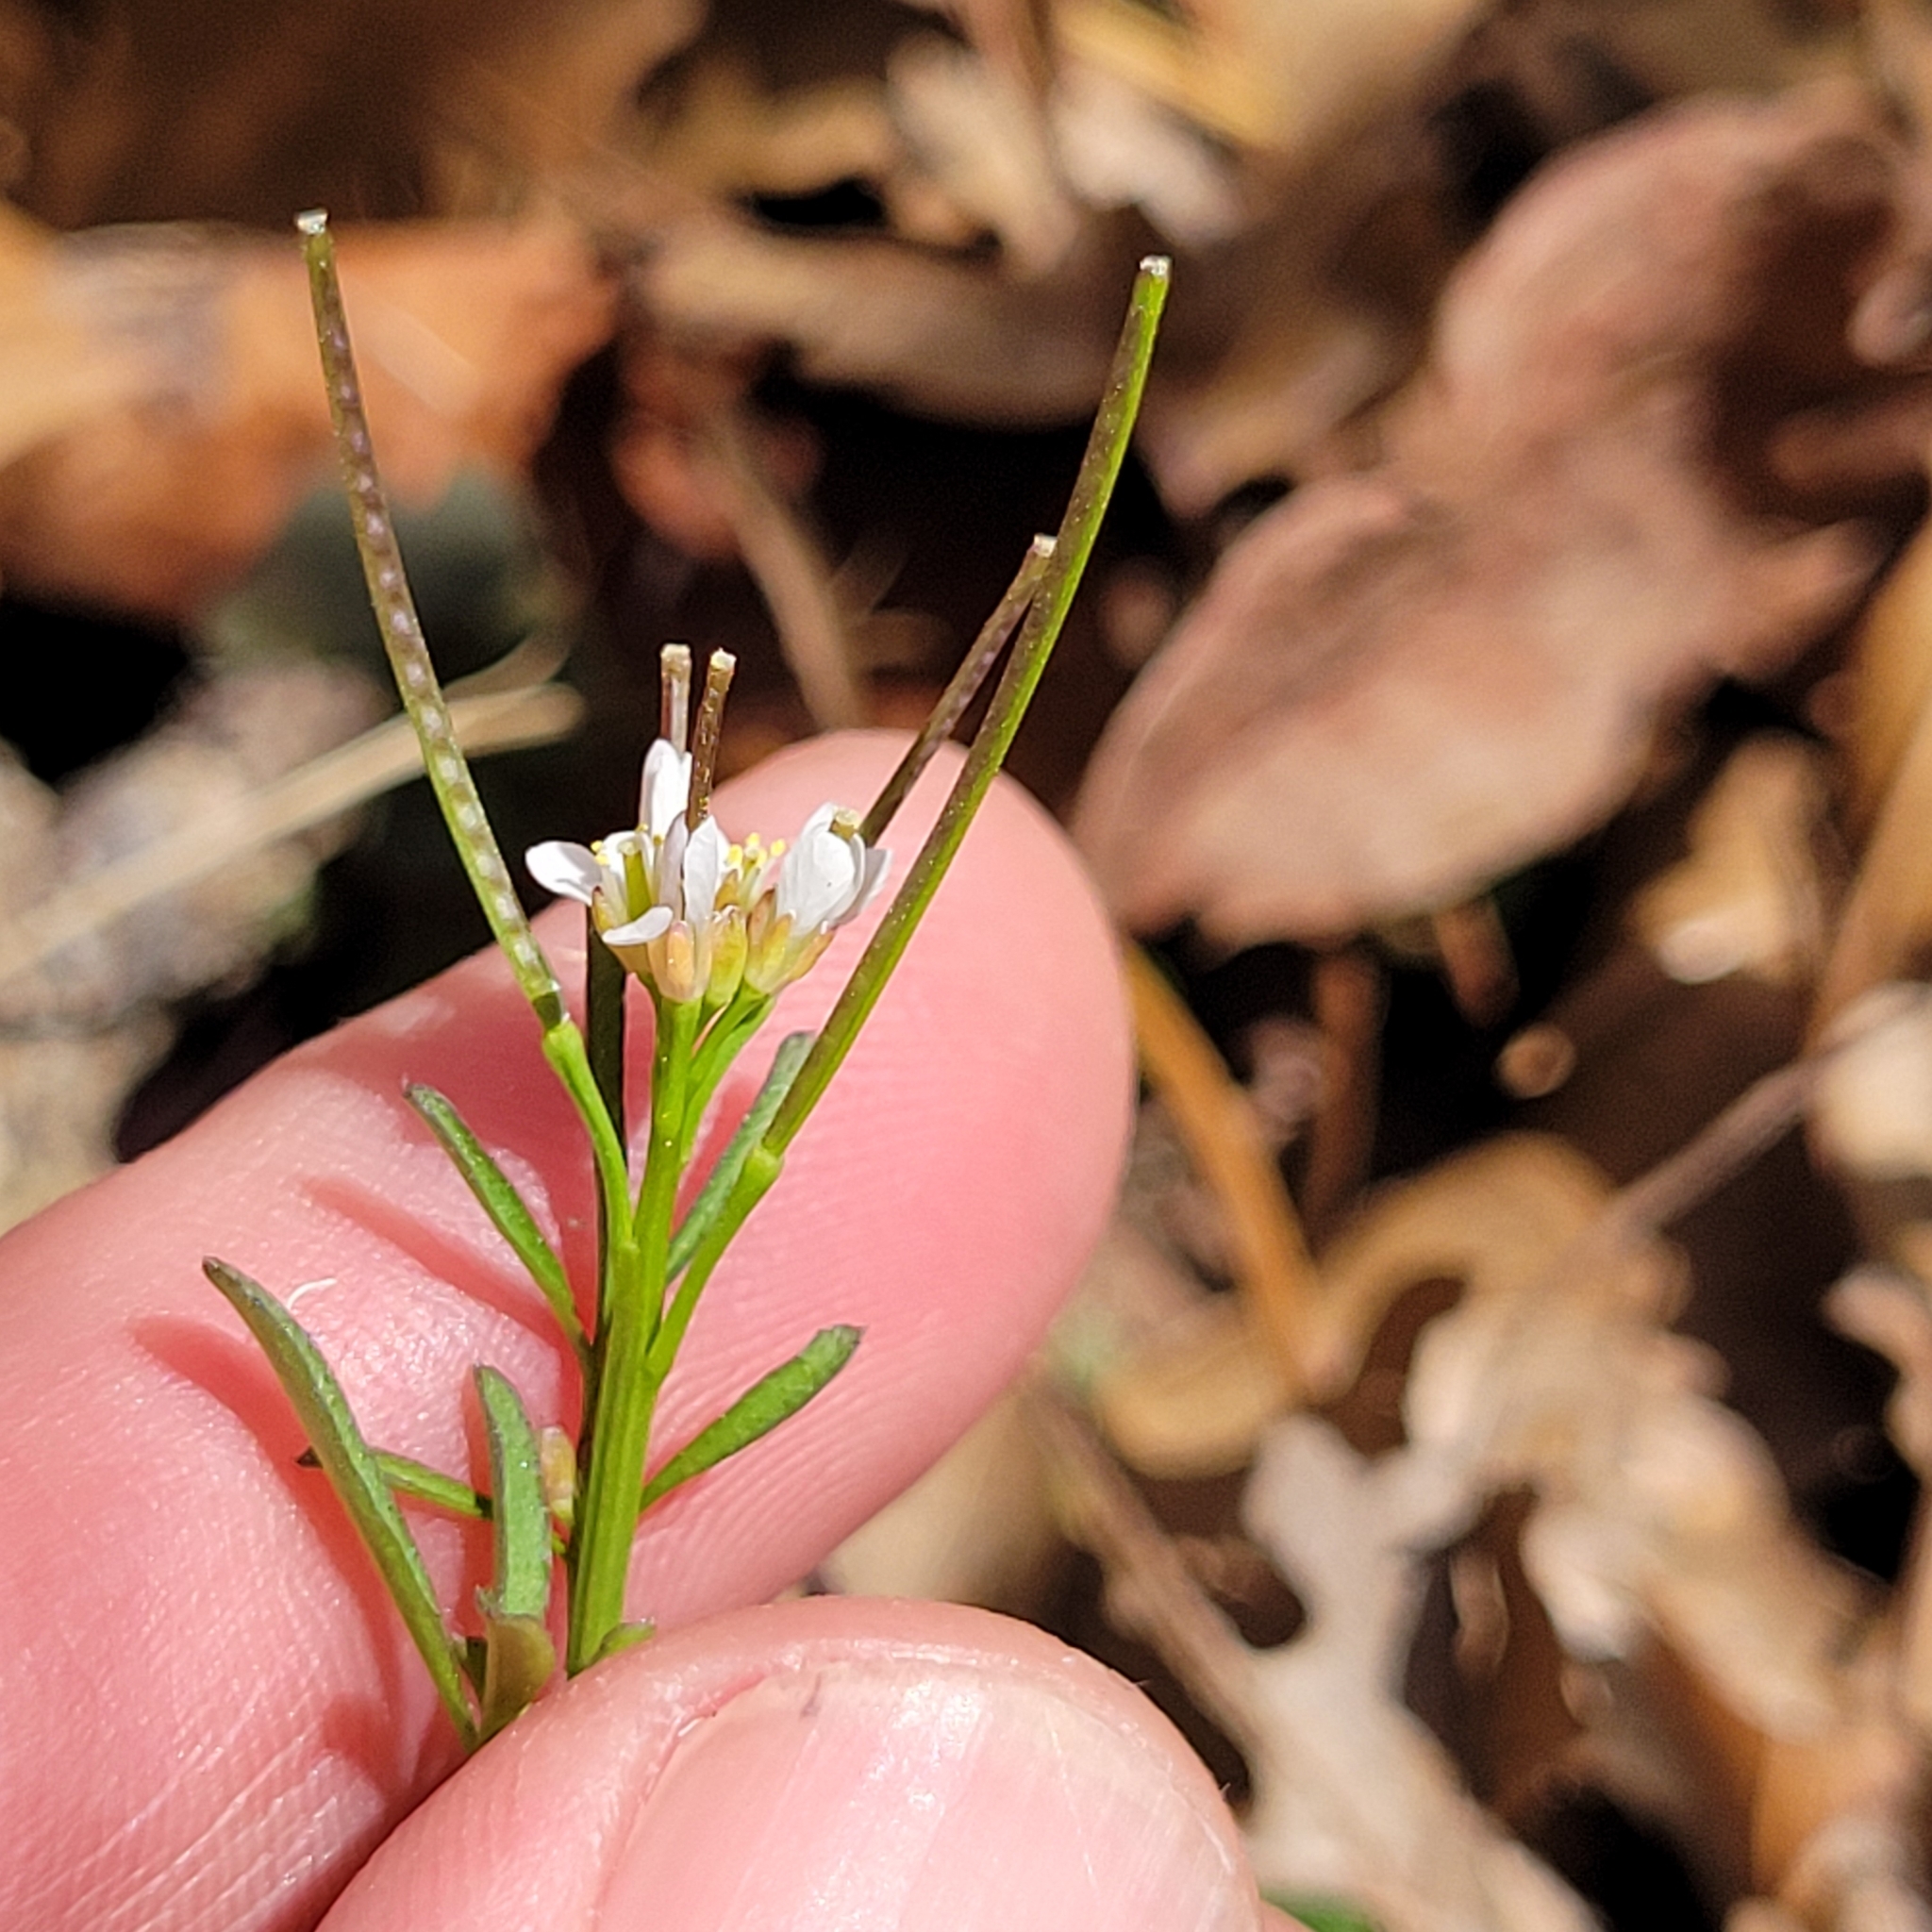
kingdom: Plantae
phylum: Tracheophyta
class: Magnoliopsida
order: Brassicales
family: Brassicaceae
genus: Cardamine
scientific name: Cardamine hirsuta
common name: Hairy bittercress
